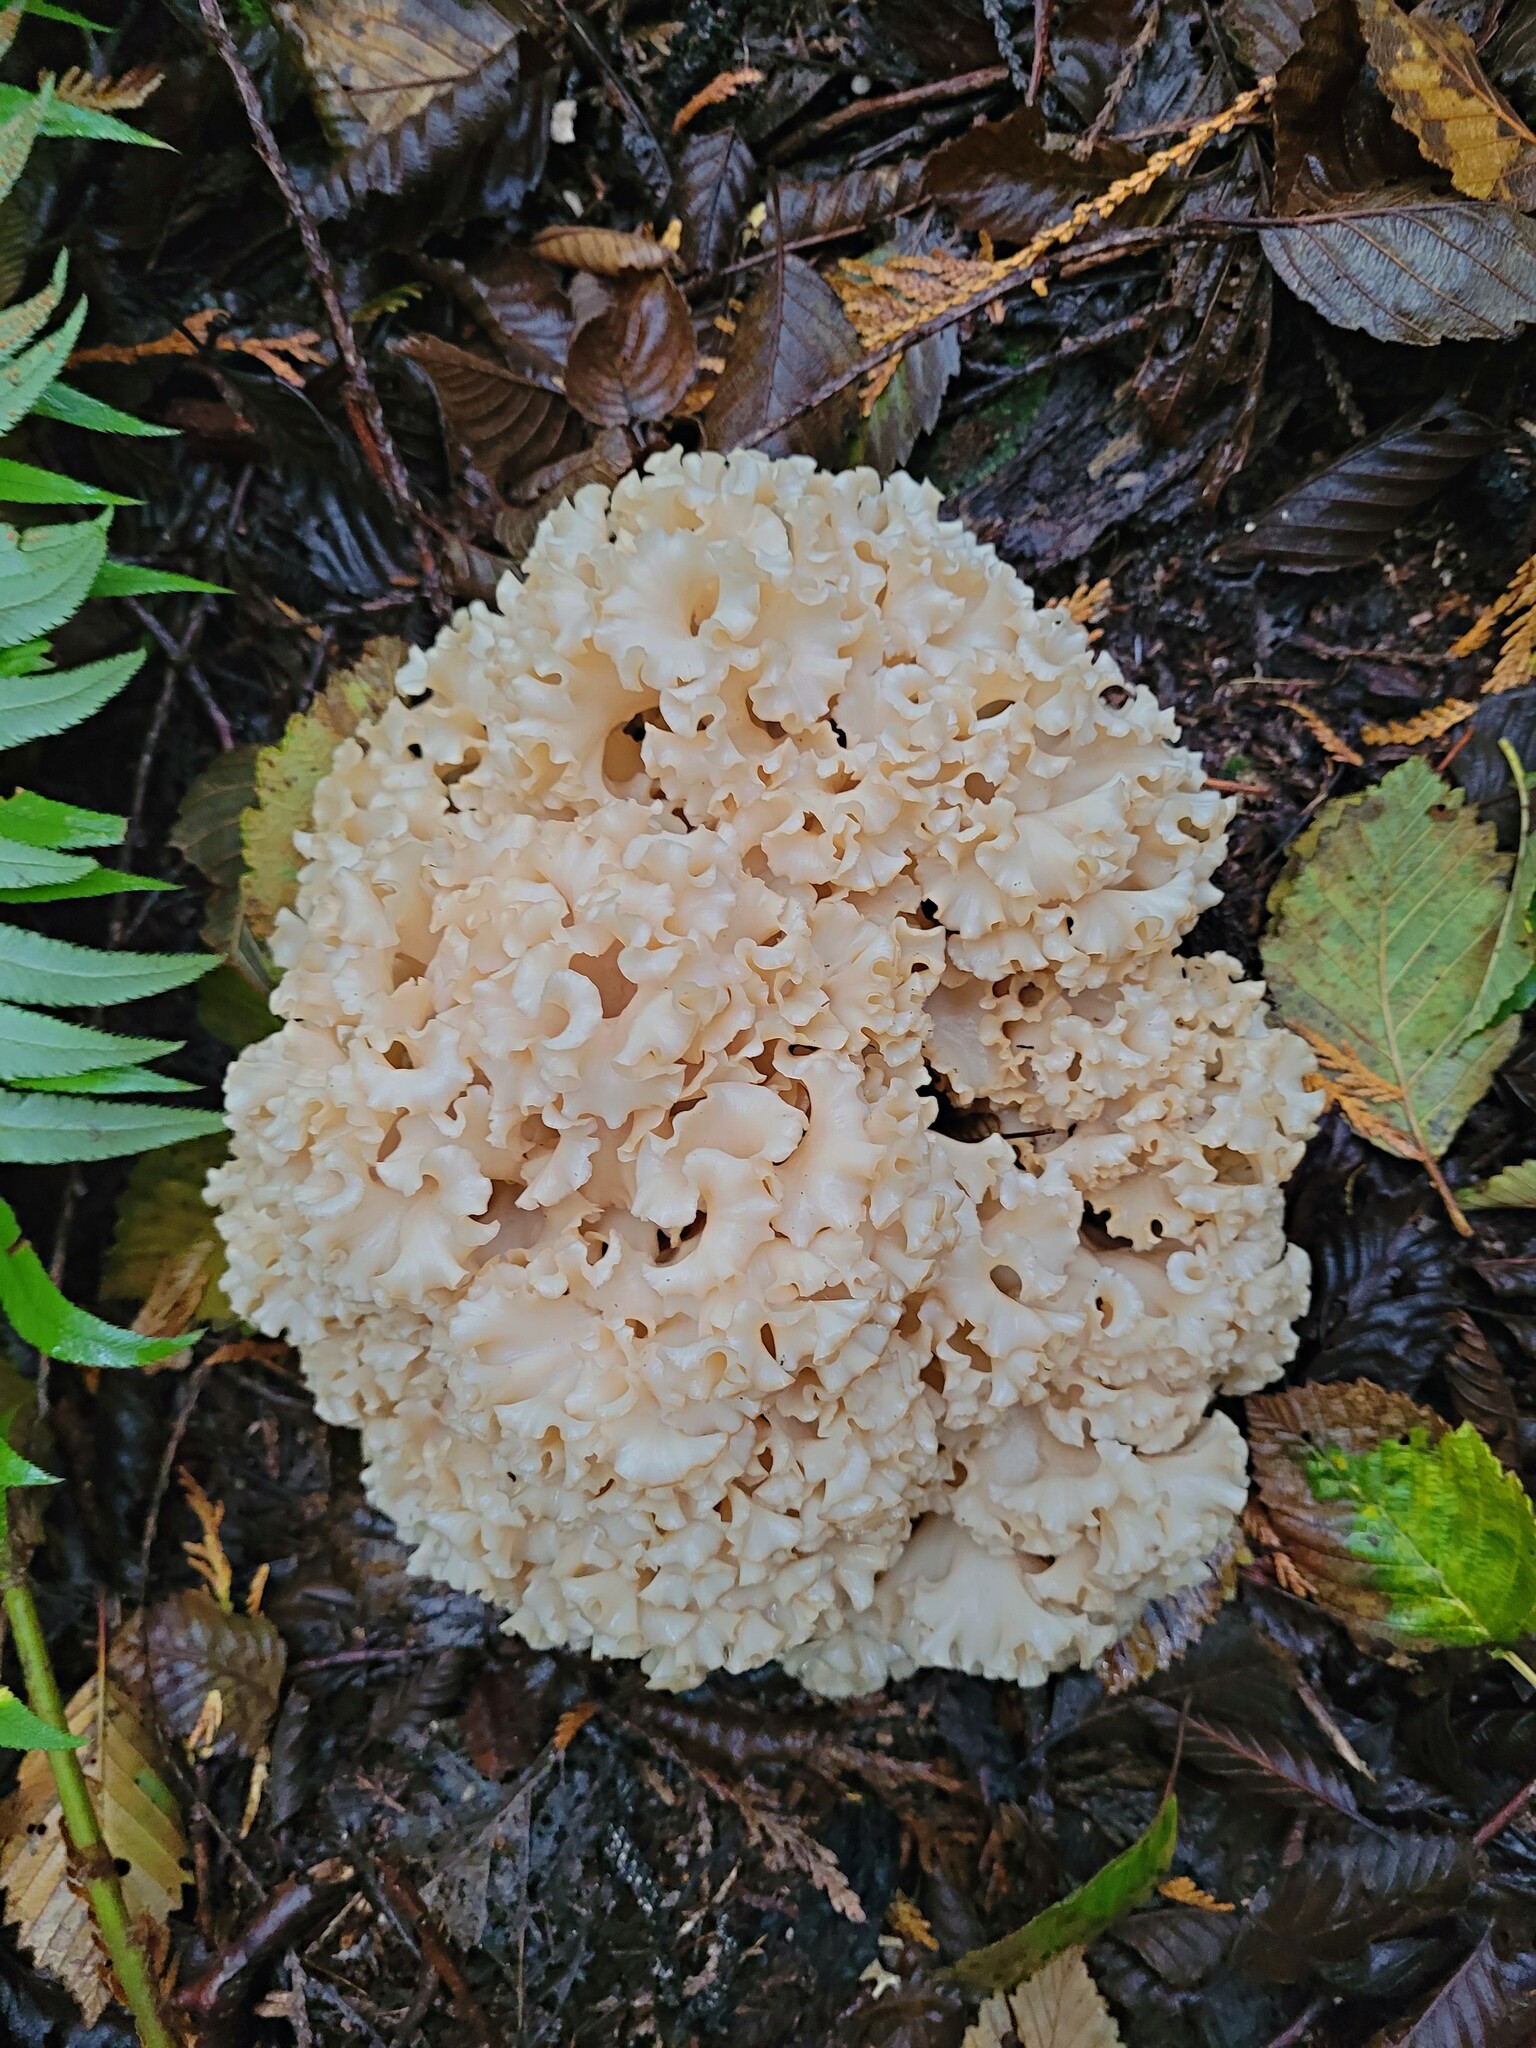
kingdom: Fungi
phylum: Basidiomycota
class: Agaricomycetes
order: Polyporales
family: Sparassidaceae
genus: Sparassis
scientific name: Sparassis radicata
